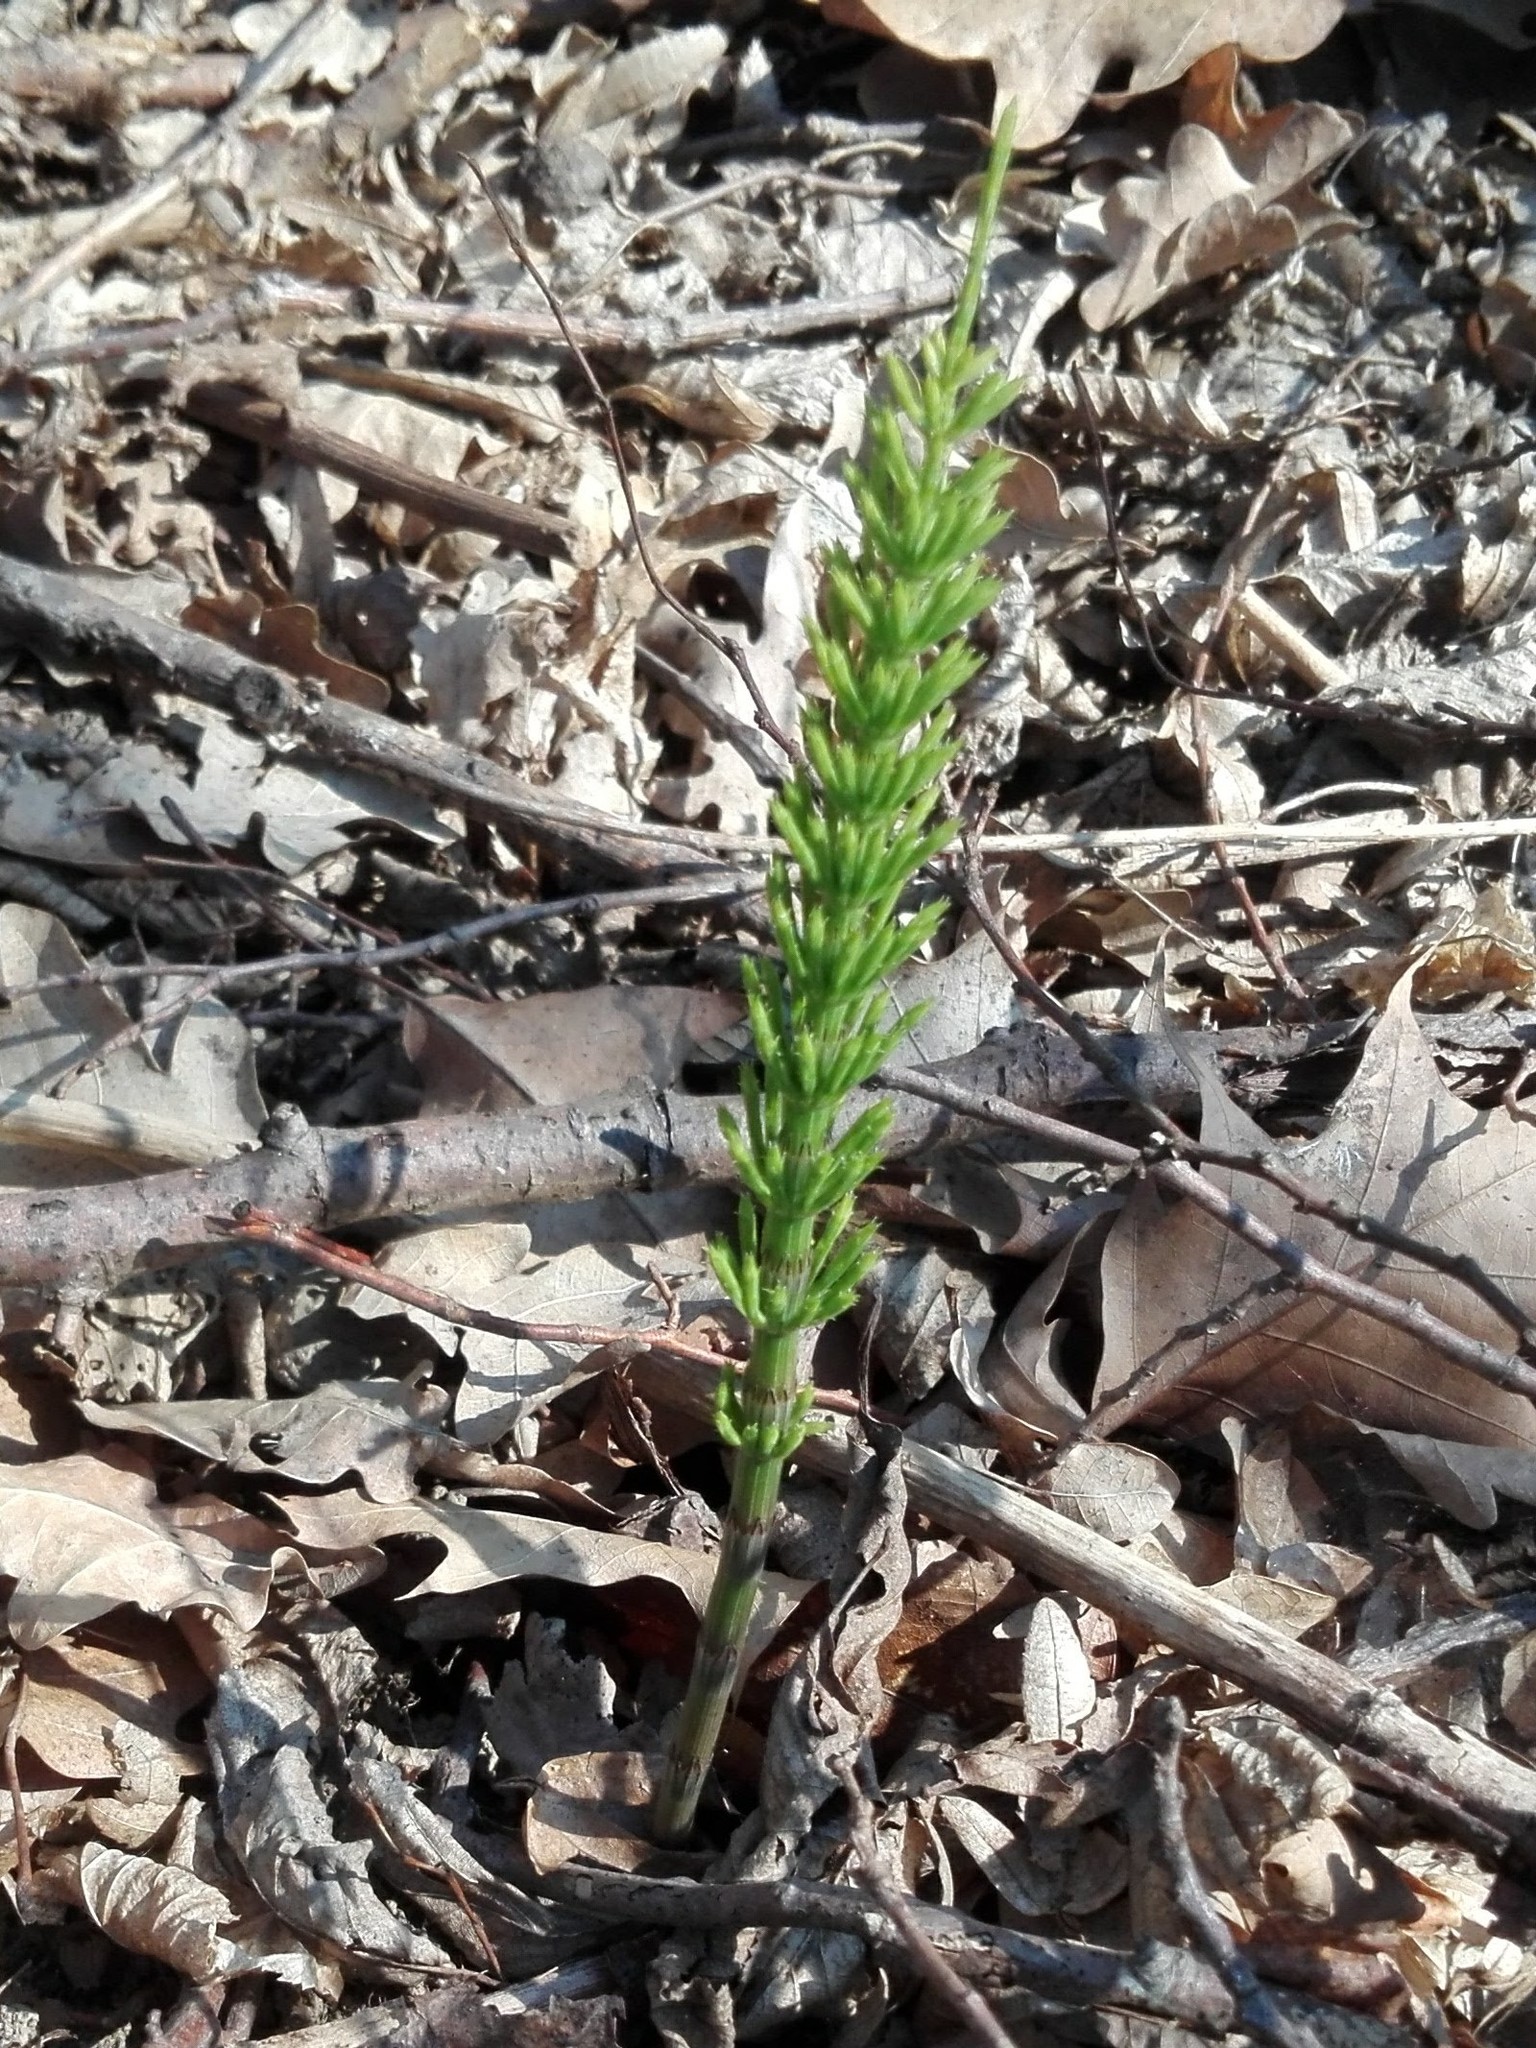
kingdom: Plantae
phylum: Tracheophyta
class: Polypodiopsida
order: Equisetales
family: Equisetaceae
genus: Equisetum
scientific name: Equisetum arvense
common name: Field horsetail
